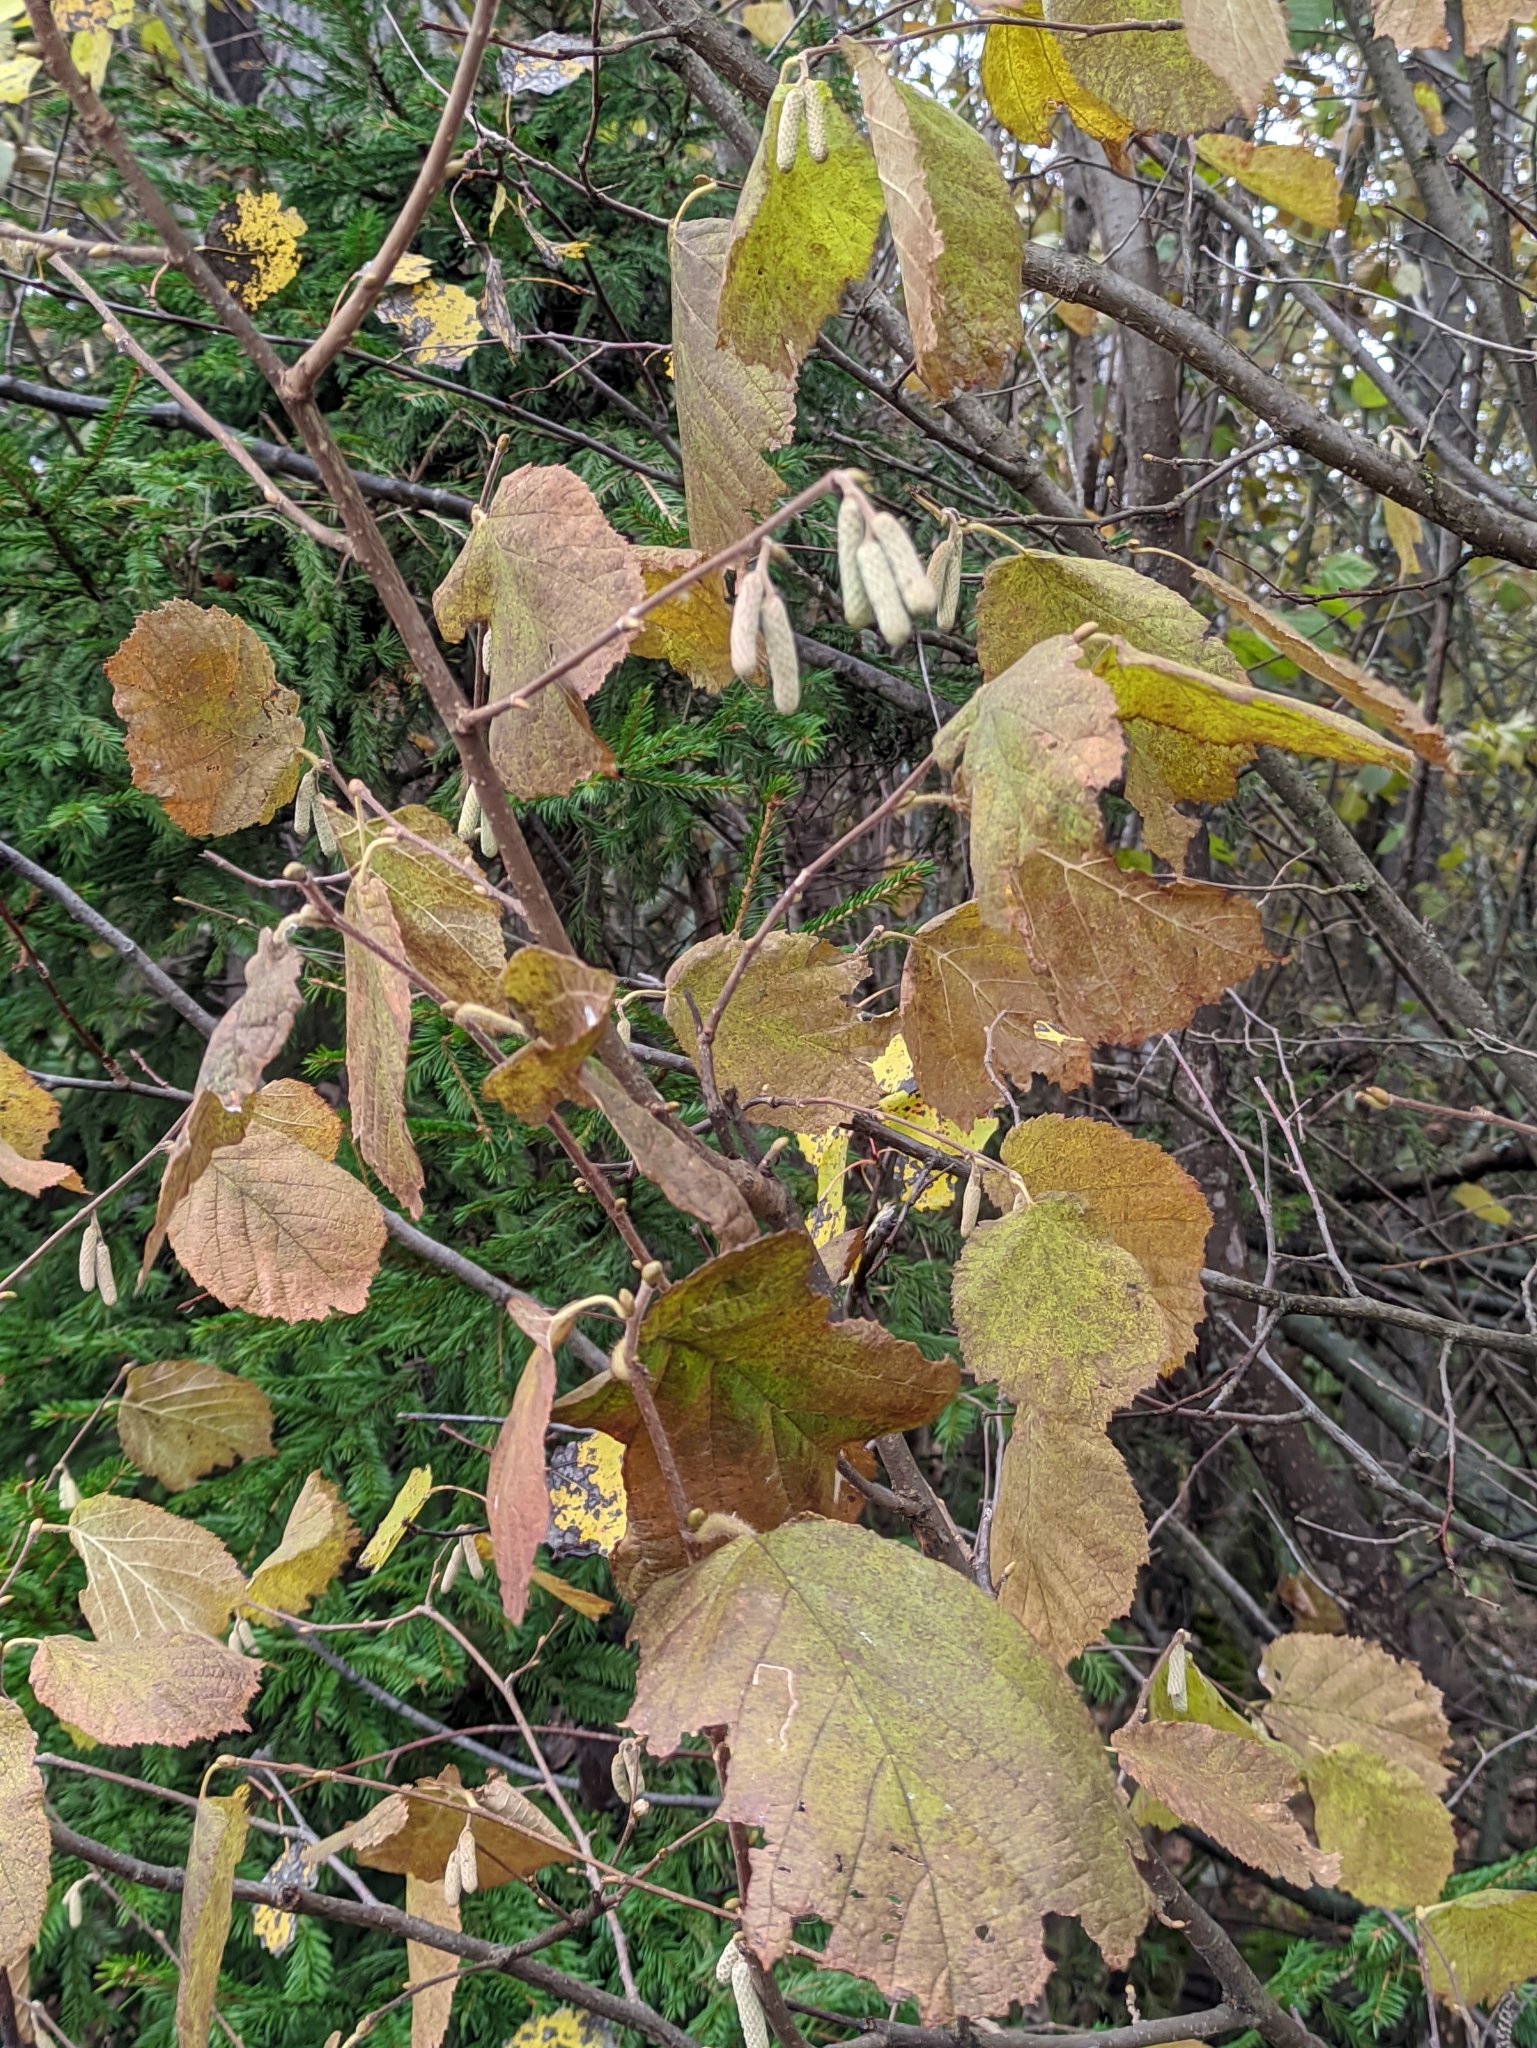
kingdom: Plantae
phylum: Tracheophyta
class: Magnoliopsida
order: Fagales
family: Betulaceae
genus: Corylus
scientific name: Corylus avellana
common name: European hazel
